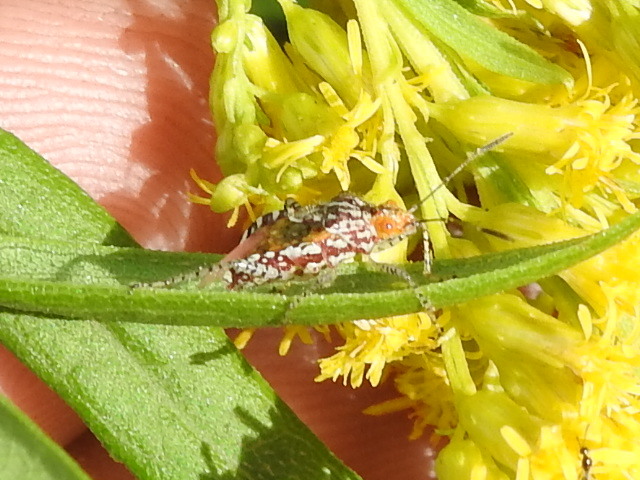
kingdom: Animalia
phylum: Arthropoda
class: Insecta
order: Hemiptera
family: Rhopalidae
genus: Niesthrea
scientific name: Niesthrea louisianica
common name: Scentless plant bug
